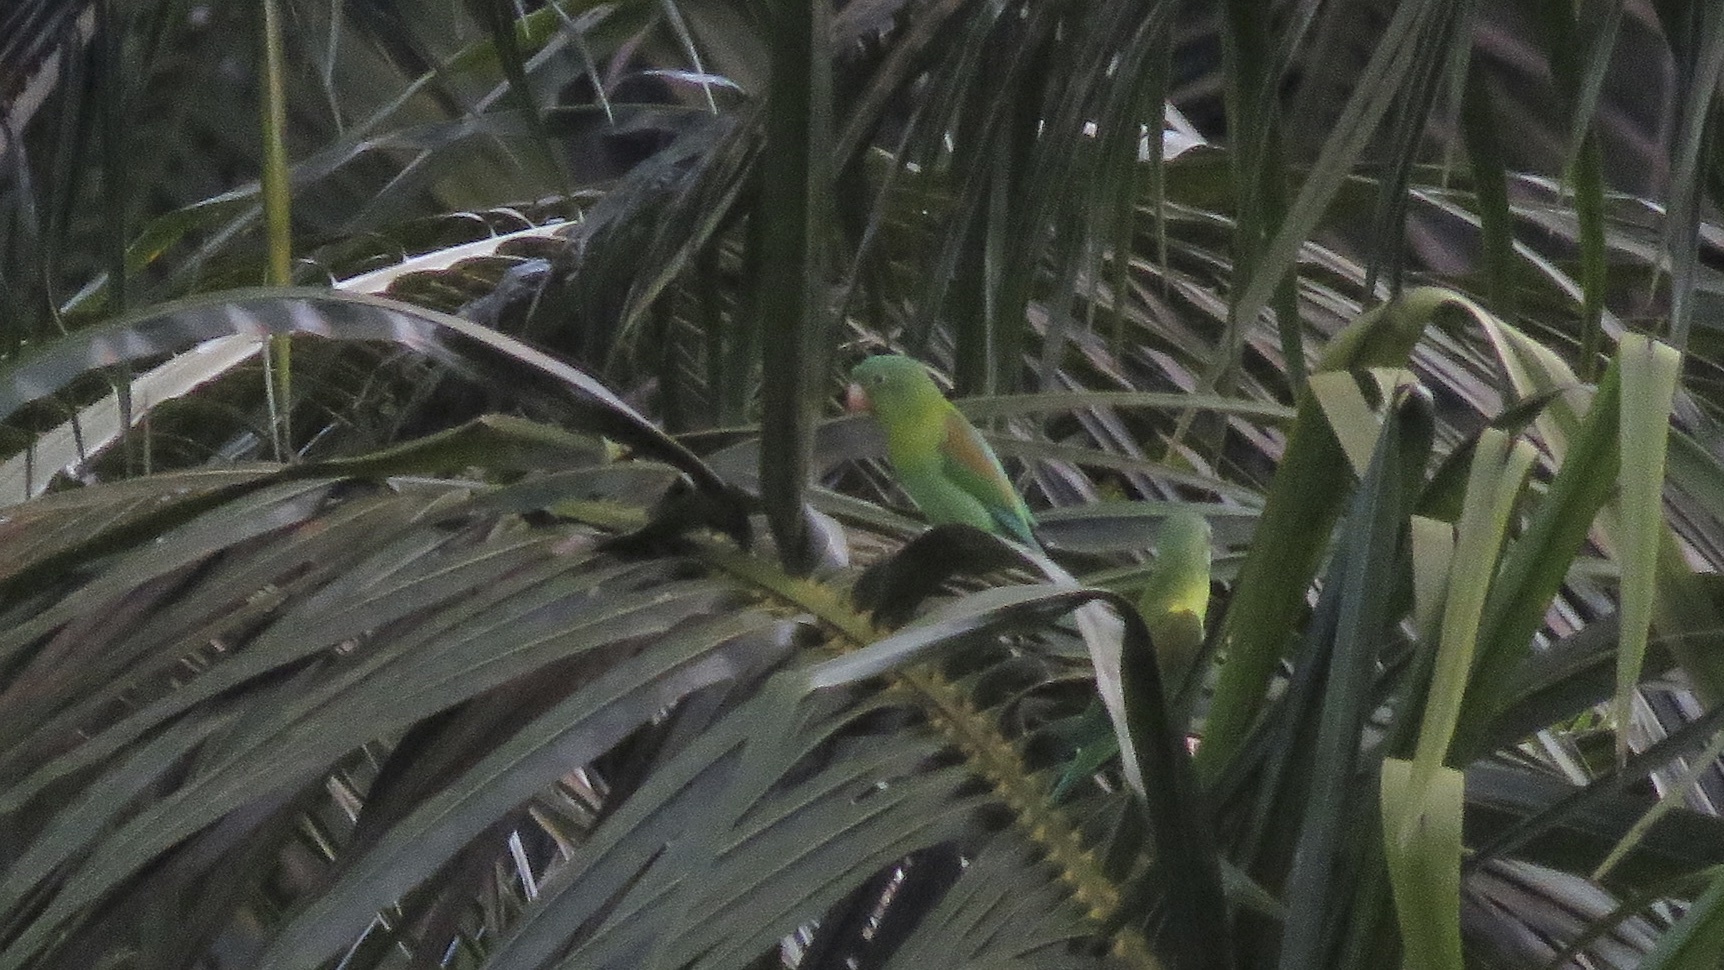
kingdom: Animalia
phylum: Chordata
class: Aves
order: Psittaciformes
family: Psittacidae
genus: Brotogeris
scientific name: Brotogeris jugularis
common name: Orange-chinned parakeet
